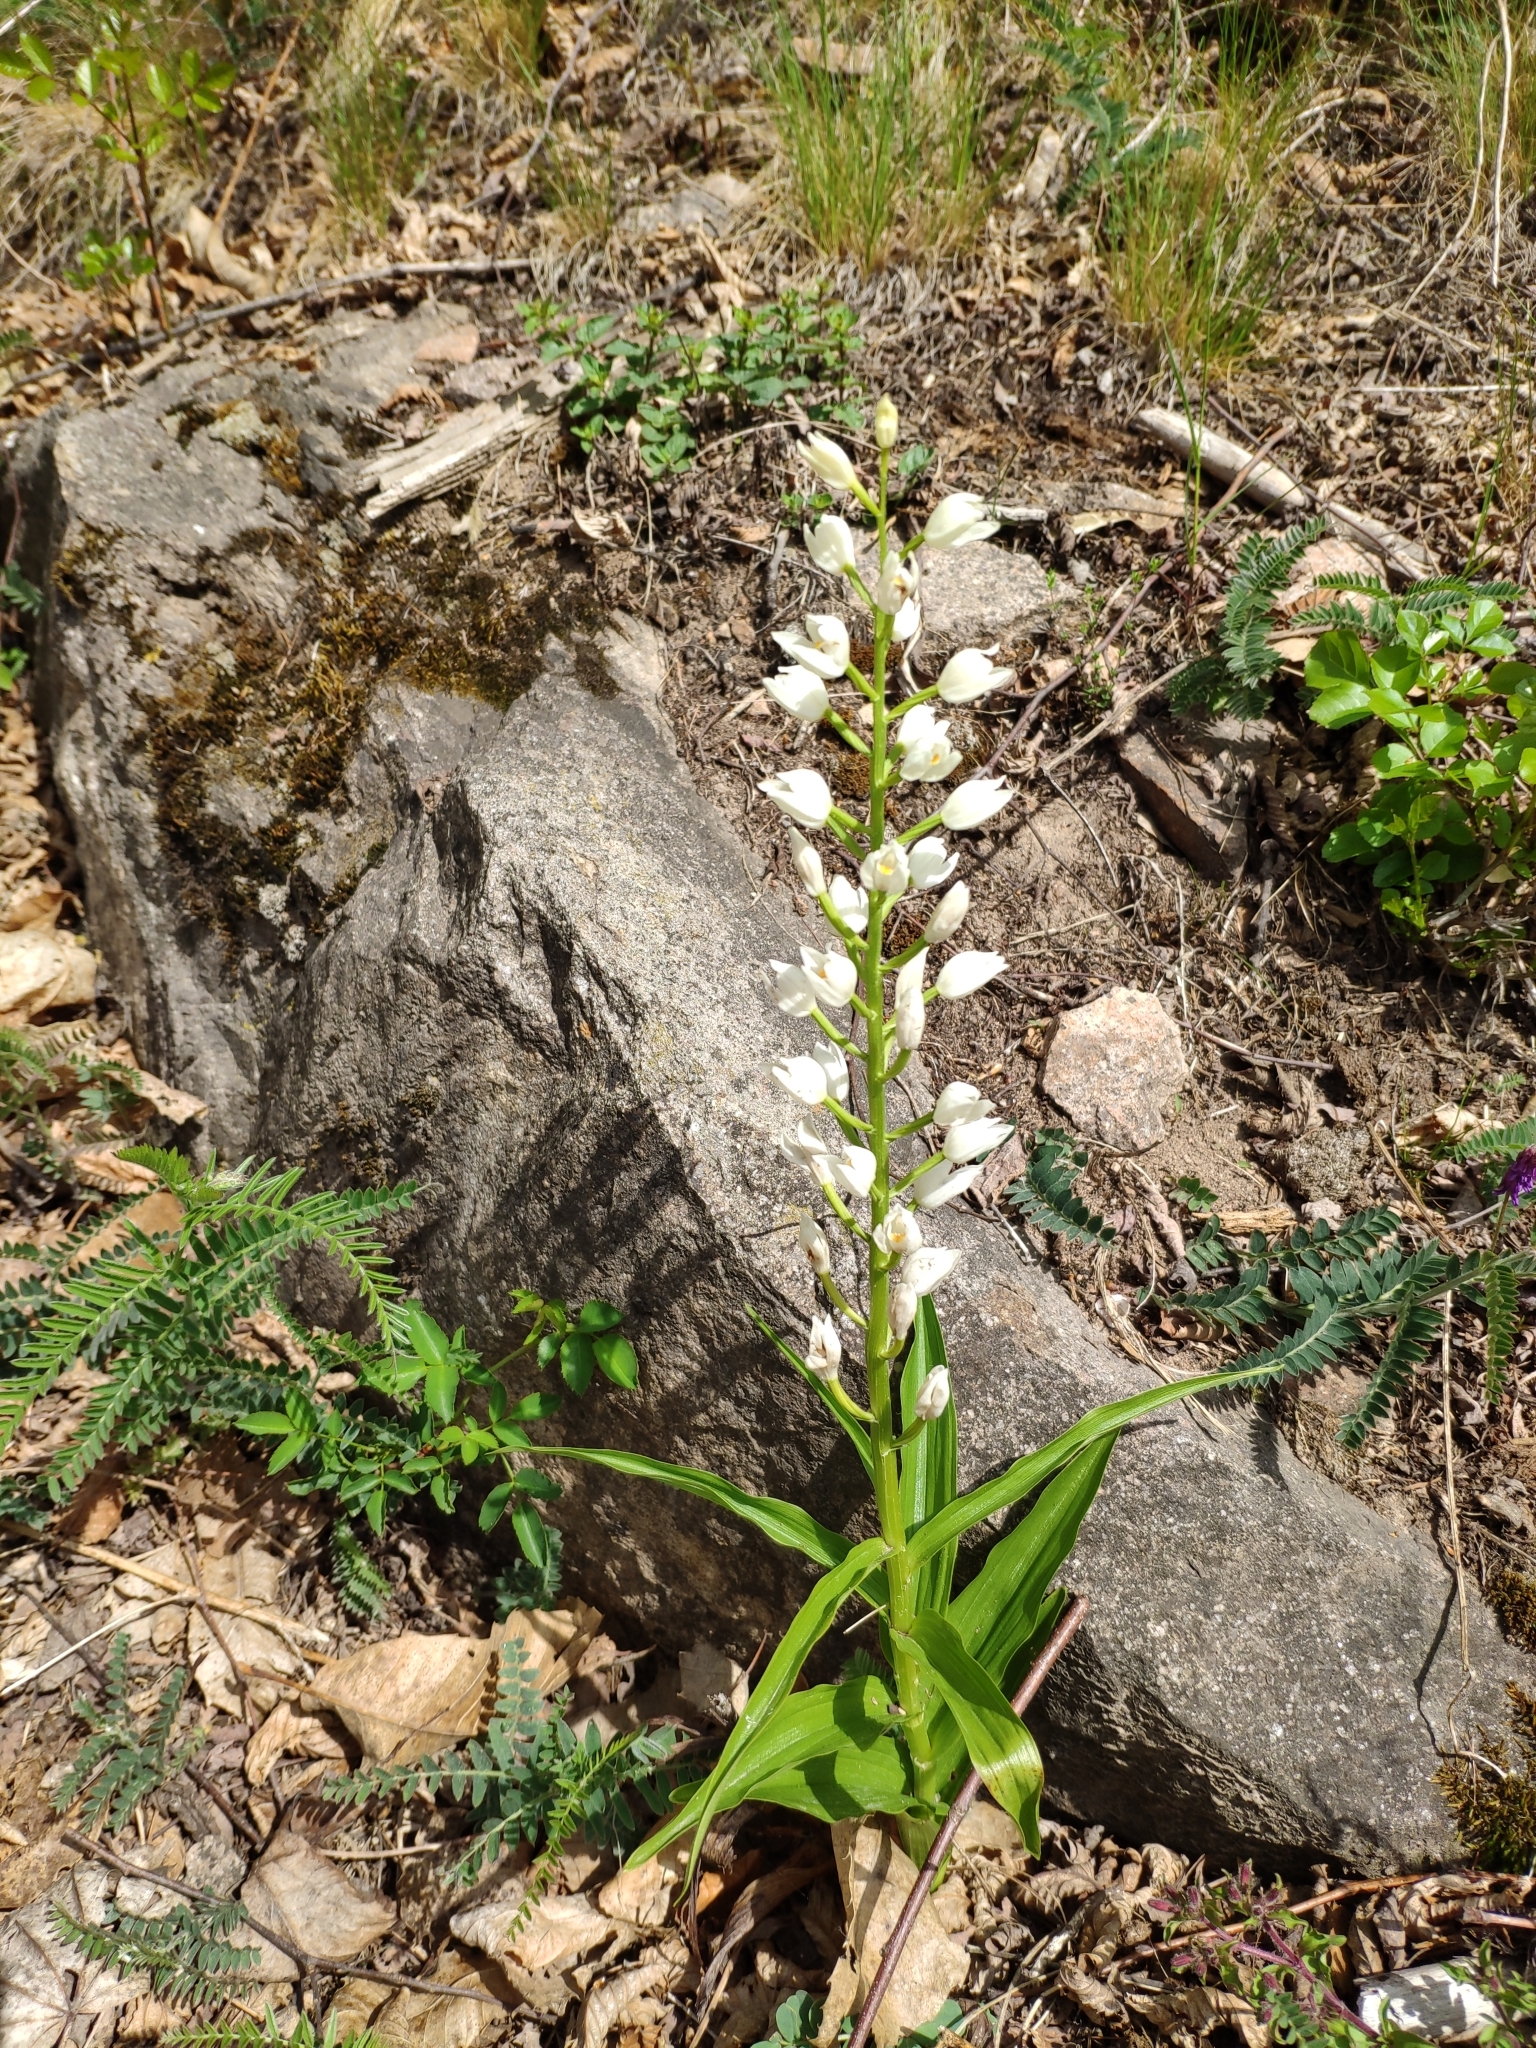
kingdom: Plantae
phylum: Tracheophyta
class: Liliopsida
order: Asparagales
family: Orchidaceae
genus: Cephalanthera
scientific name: Cephalanthera longifolia
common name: Narrow-leaved helleborine
